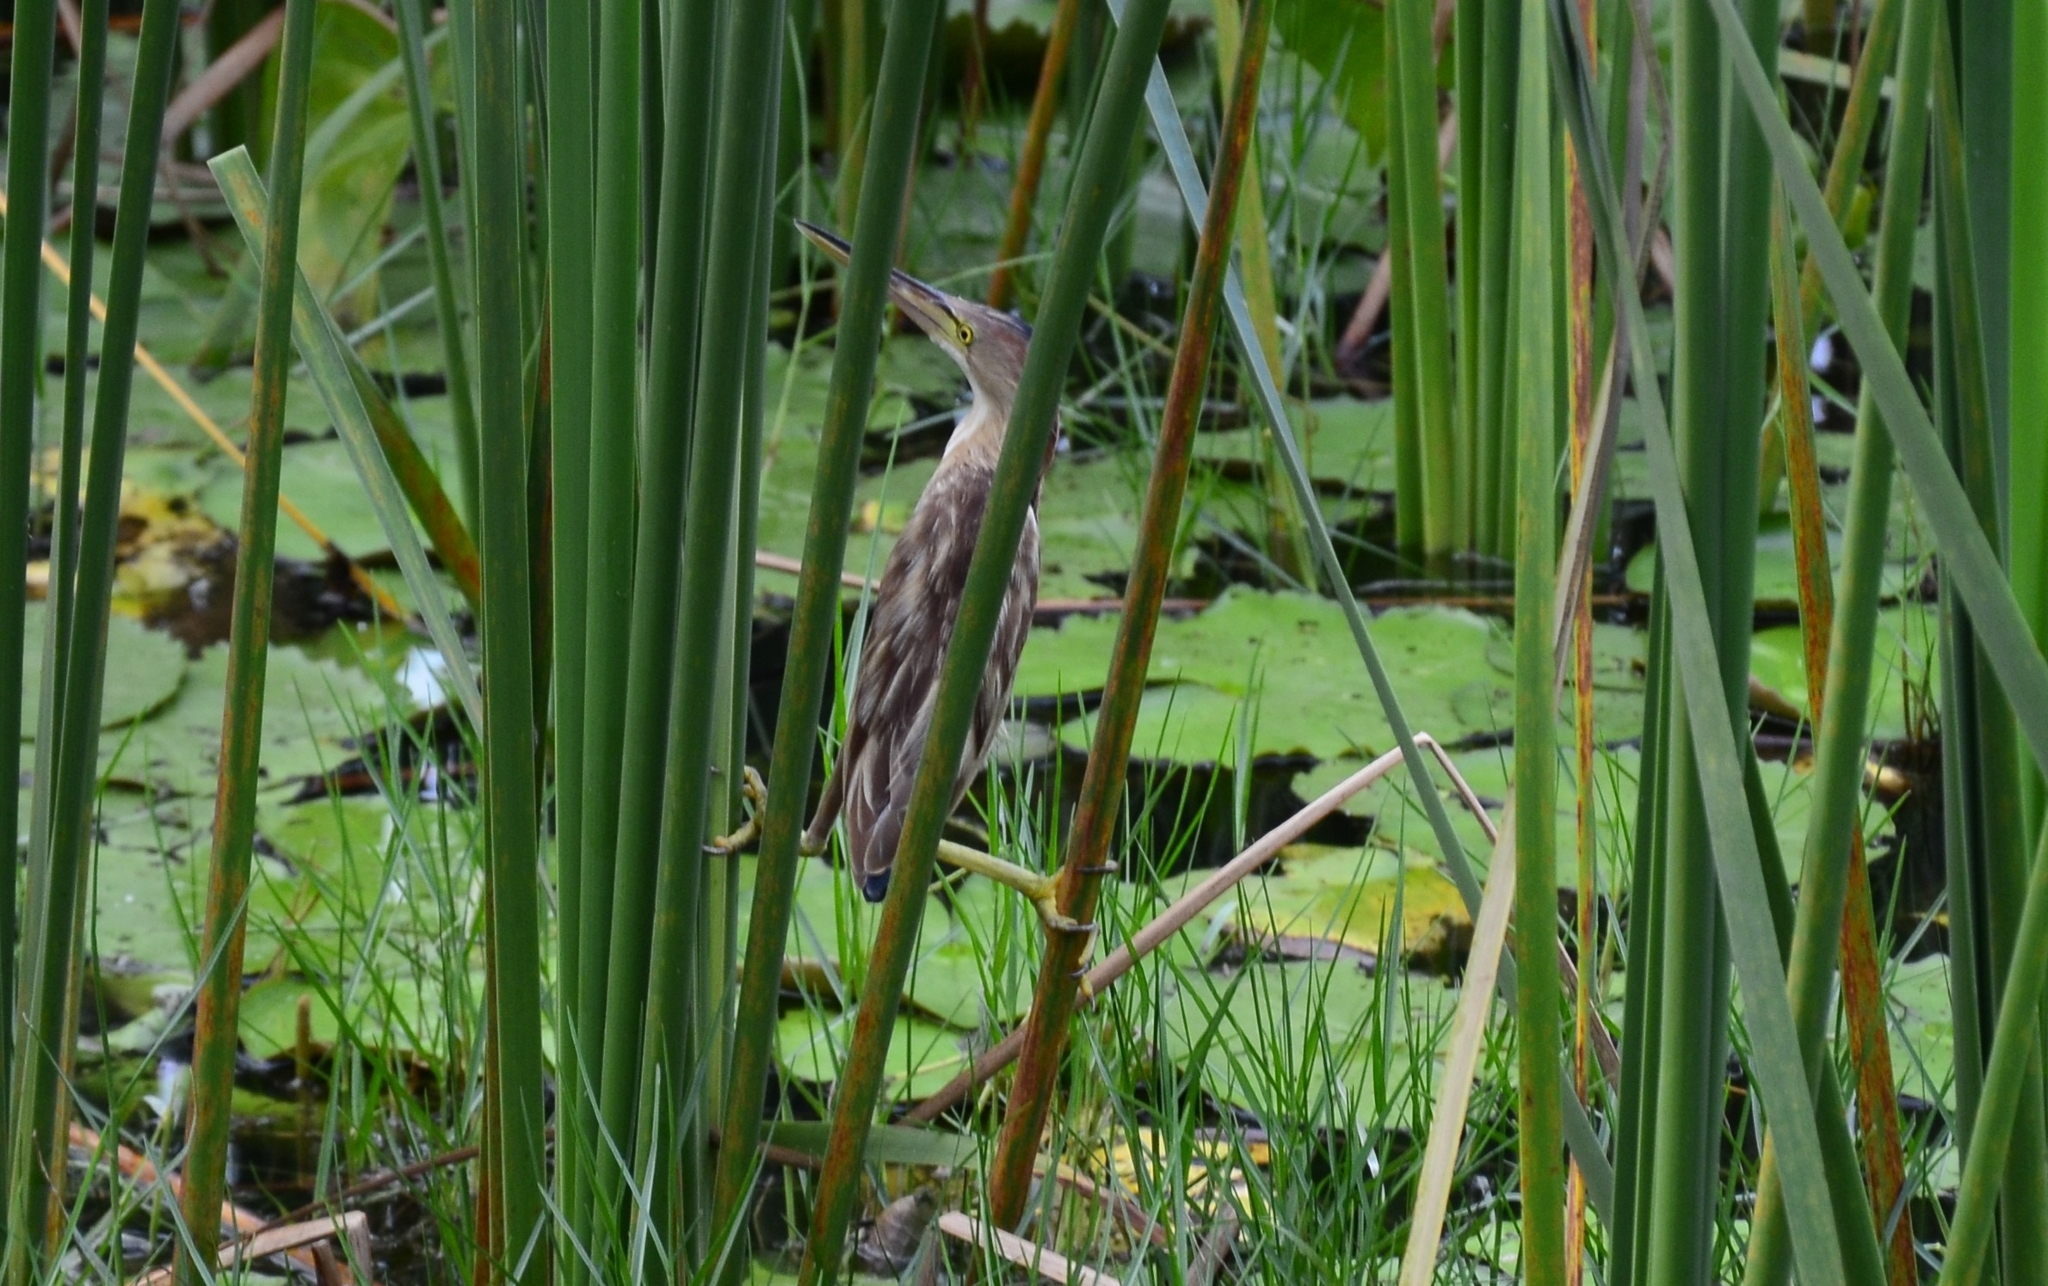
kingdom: Animalia
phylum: Chordata
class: Aves
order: Pelecaniformes
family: Ardeidae
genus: Ixobrychus
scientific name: Ixobrychus sinensis
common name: Yellow bittern
